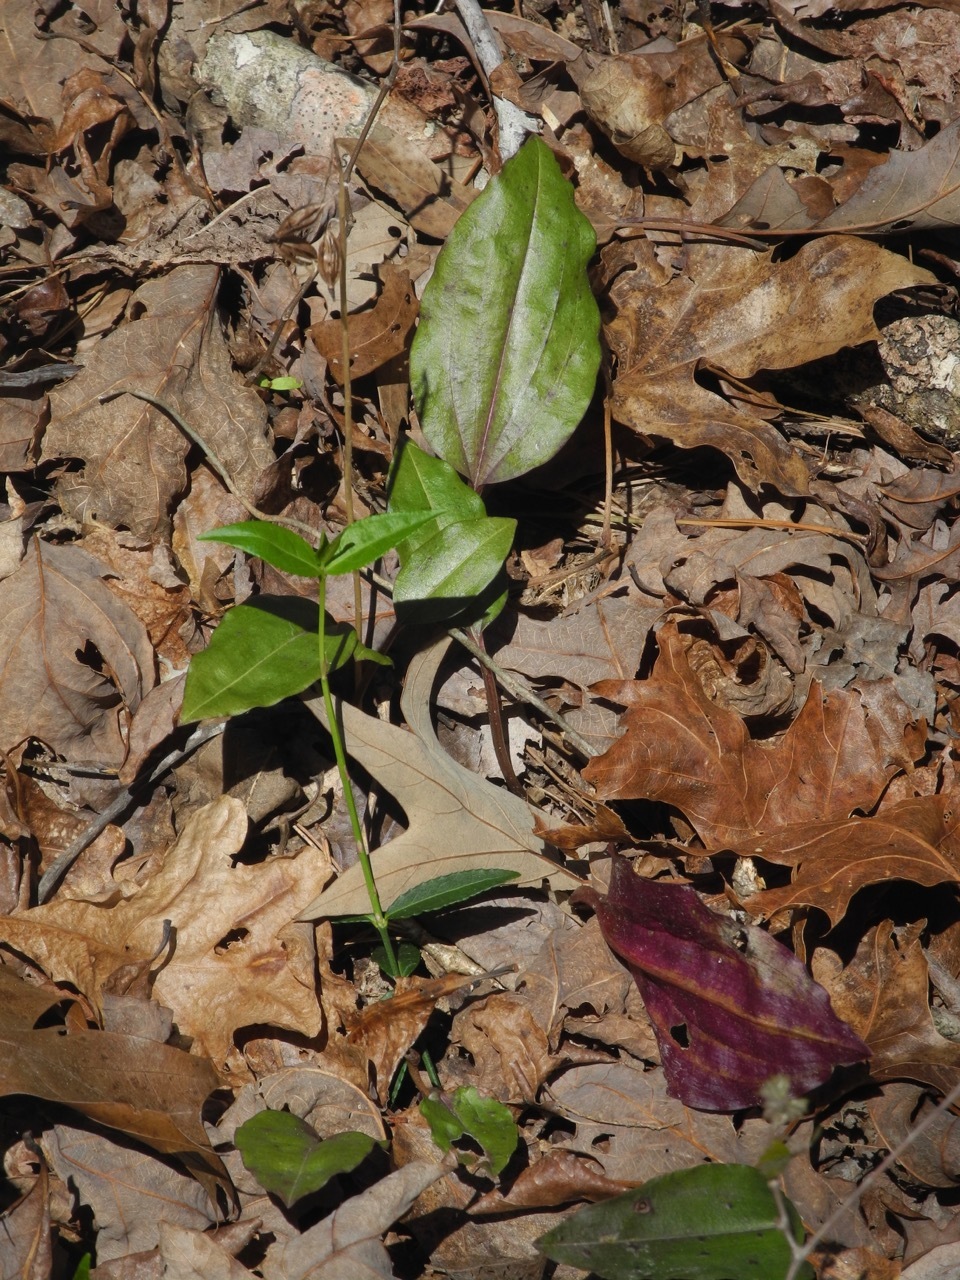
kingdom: Plantae
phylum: Tracheophyta
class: Liliopsida
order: Asparagales
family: Orchidaceae
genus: Tipularia
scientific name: Tipularia discolor
